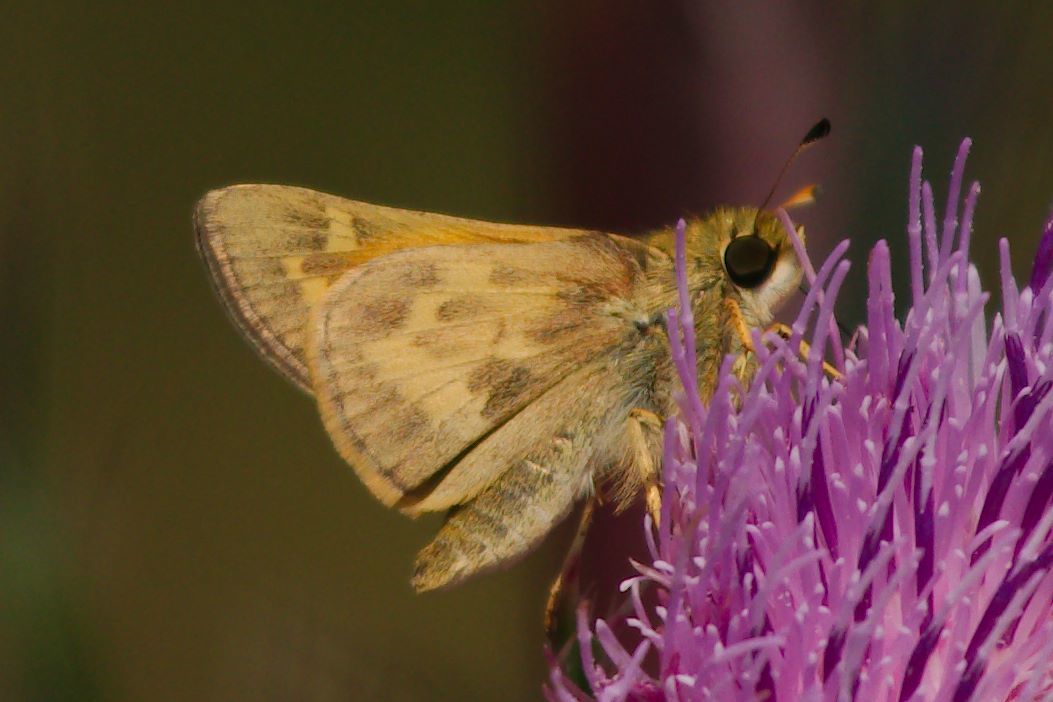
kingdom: Animalia
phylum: Arthropoda
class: Insecta
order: Lepidoptera
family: Hesperiidae
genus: Atalopedes
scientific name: Atalopedes
